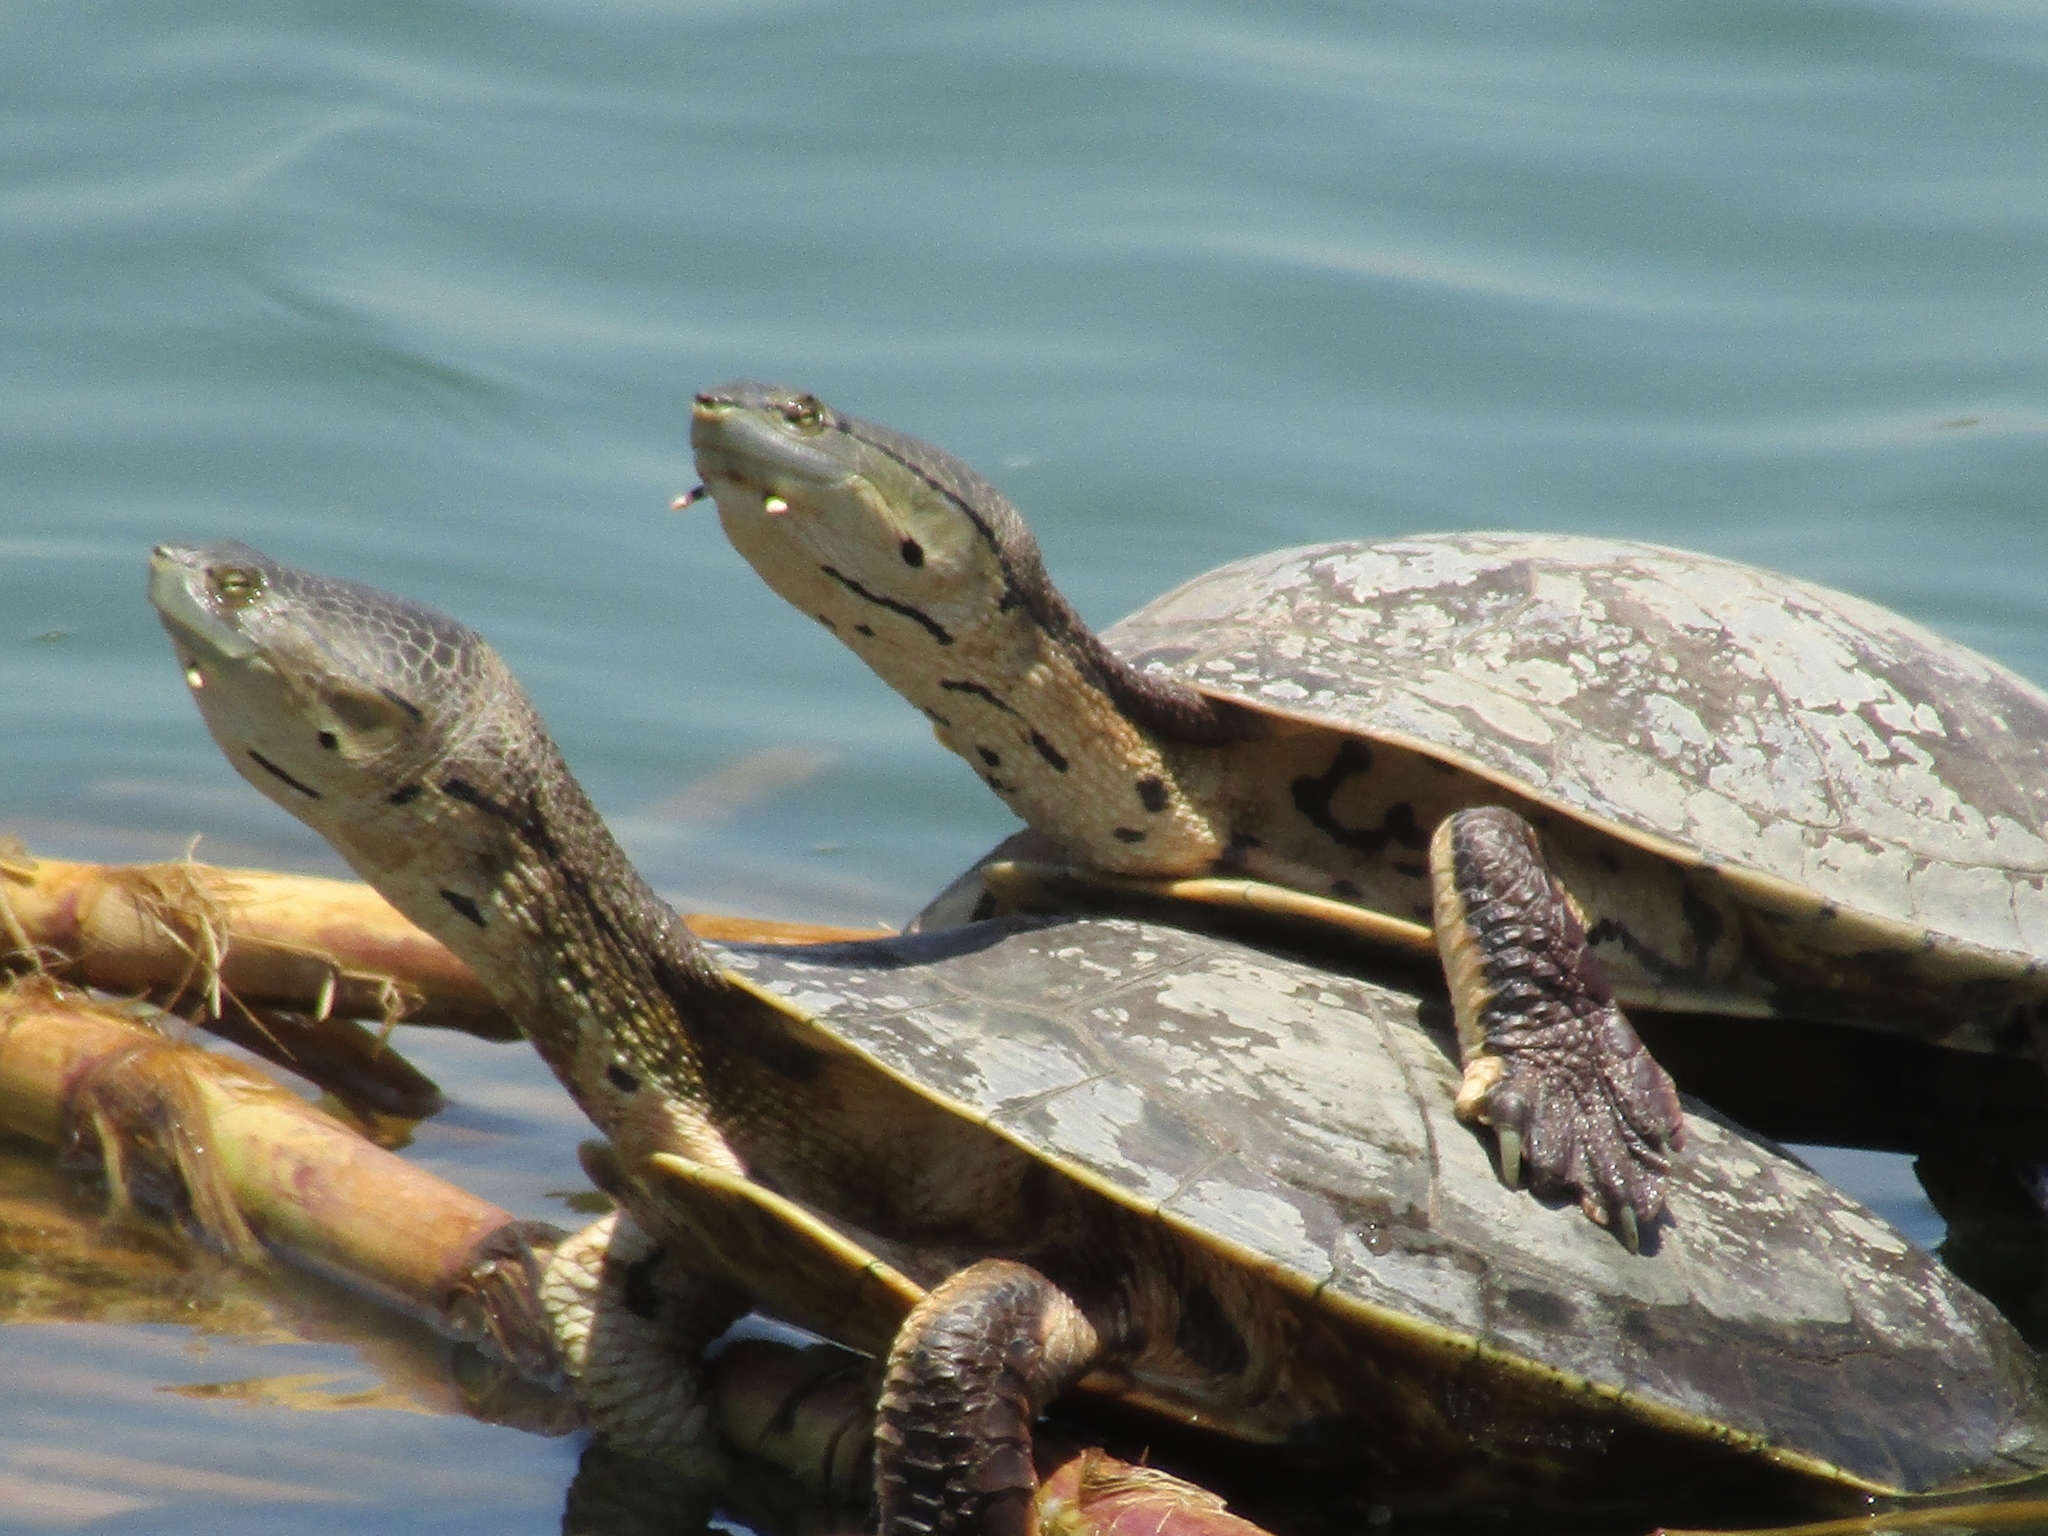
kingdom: Animalia
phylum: Chordata
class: Testudines
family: Chelidae
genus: Phrynops
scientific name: Phrynops hilarii
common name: Side-necked turtle of saint hillaire
